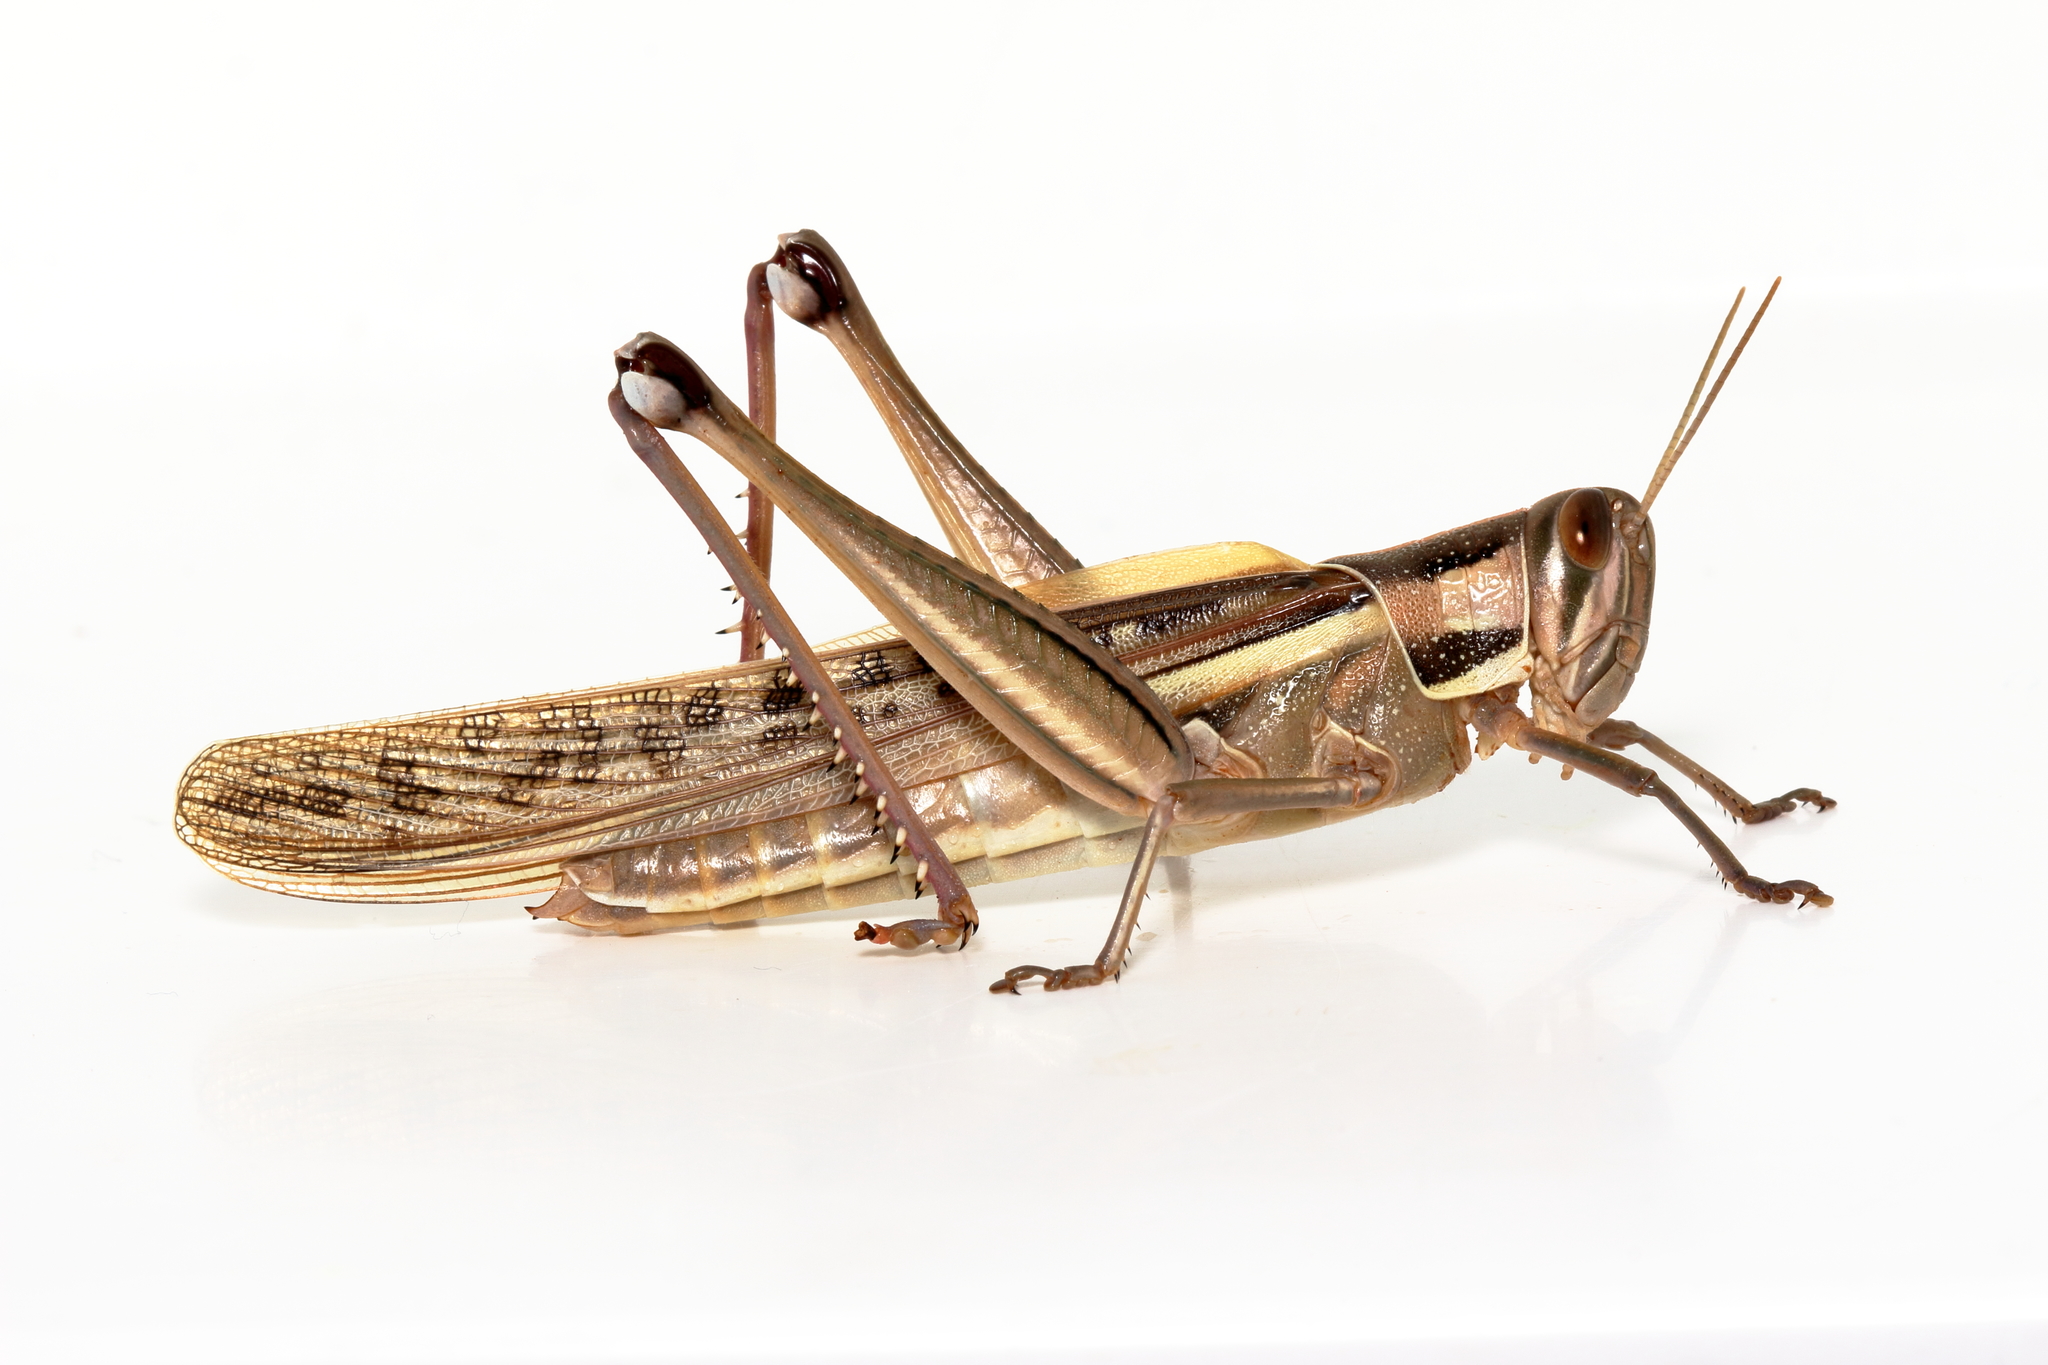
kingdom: Animalia
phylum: Arthropoda
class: Insecta
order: Orthoptera
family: Acrididae
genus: Austracris
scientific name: Austracris guttulosa
